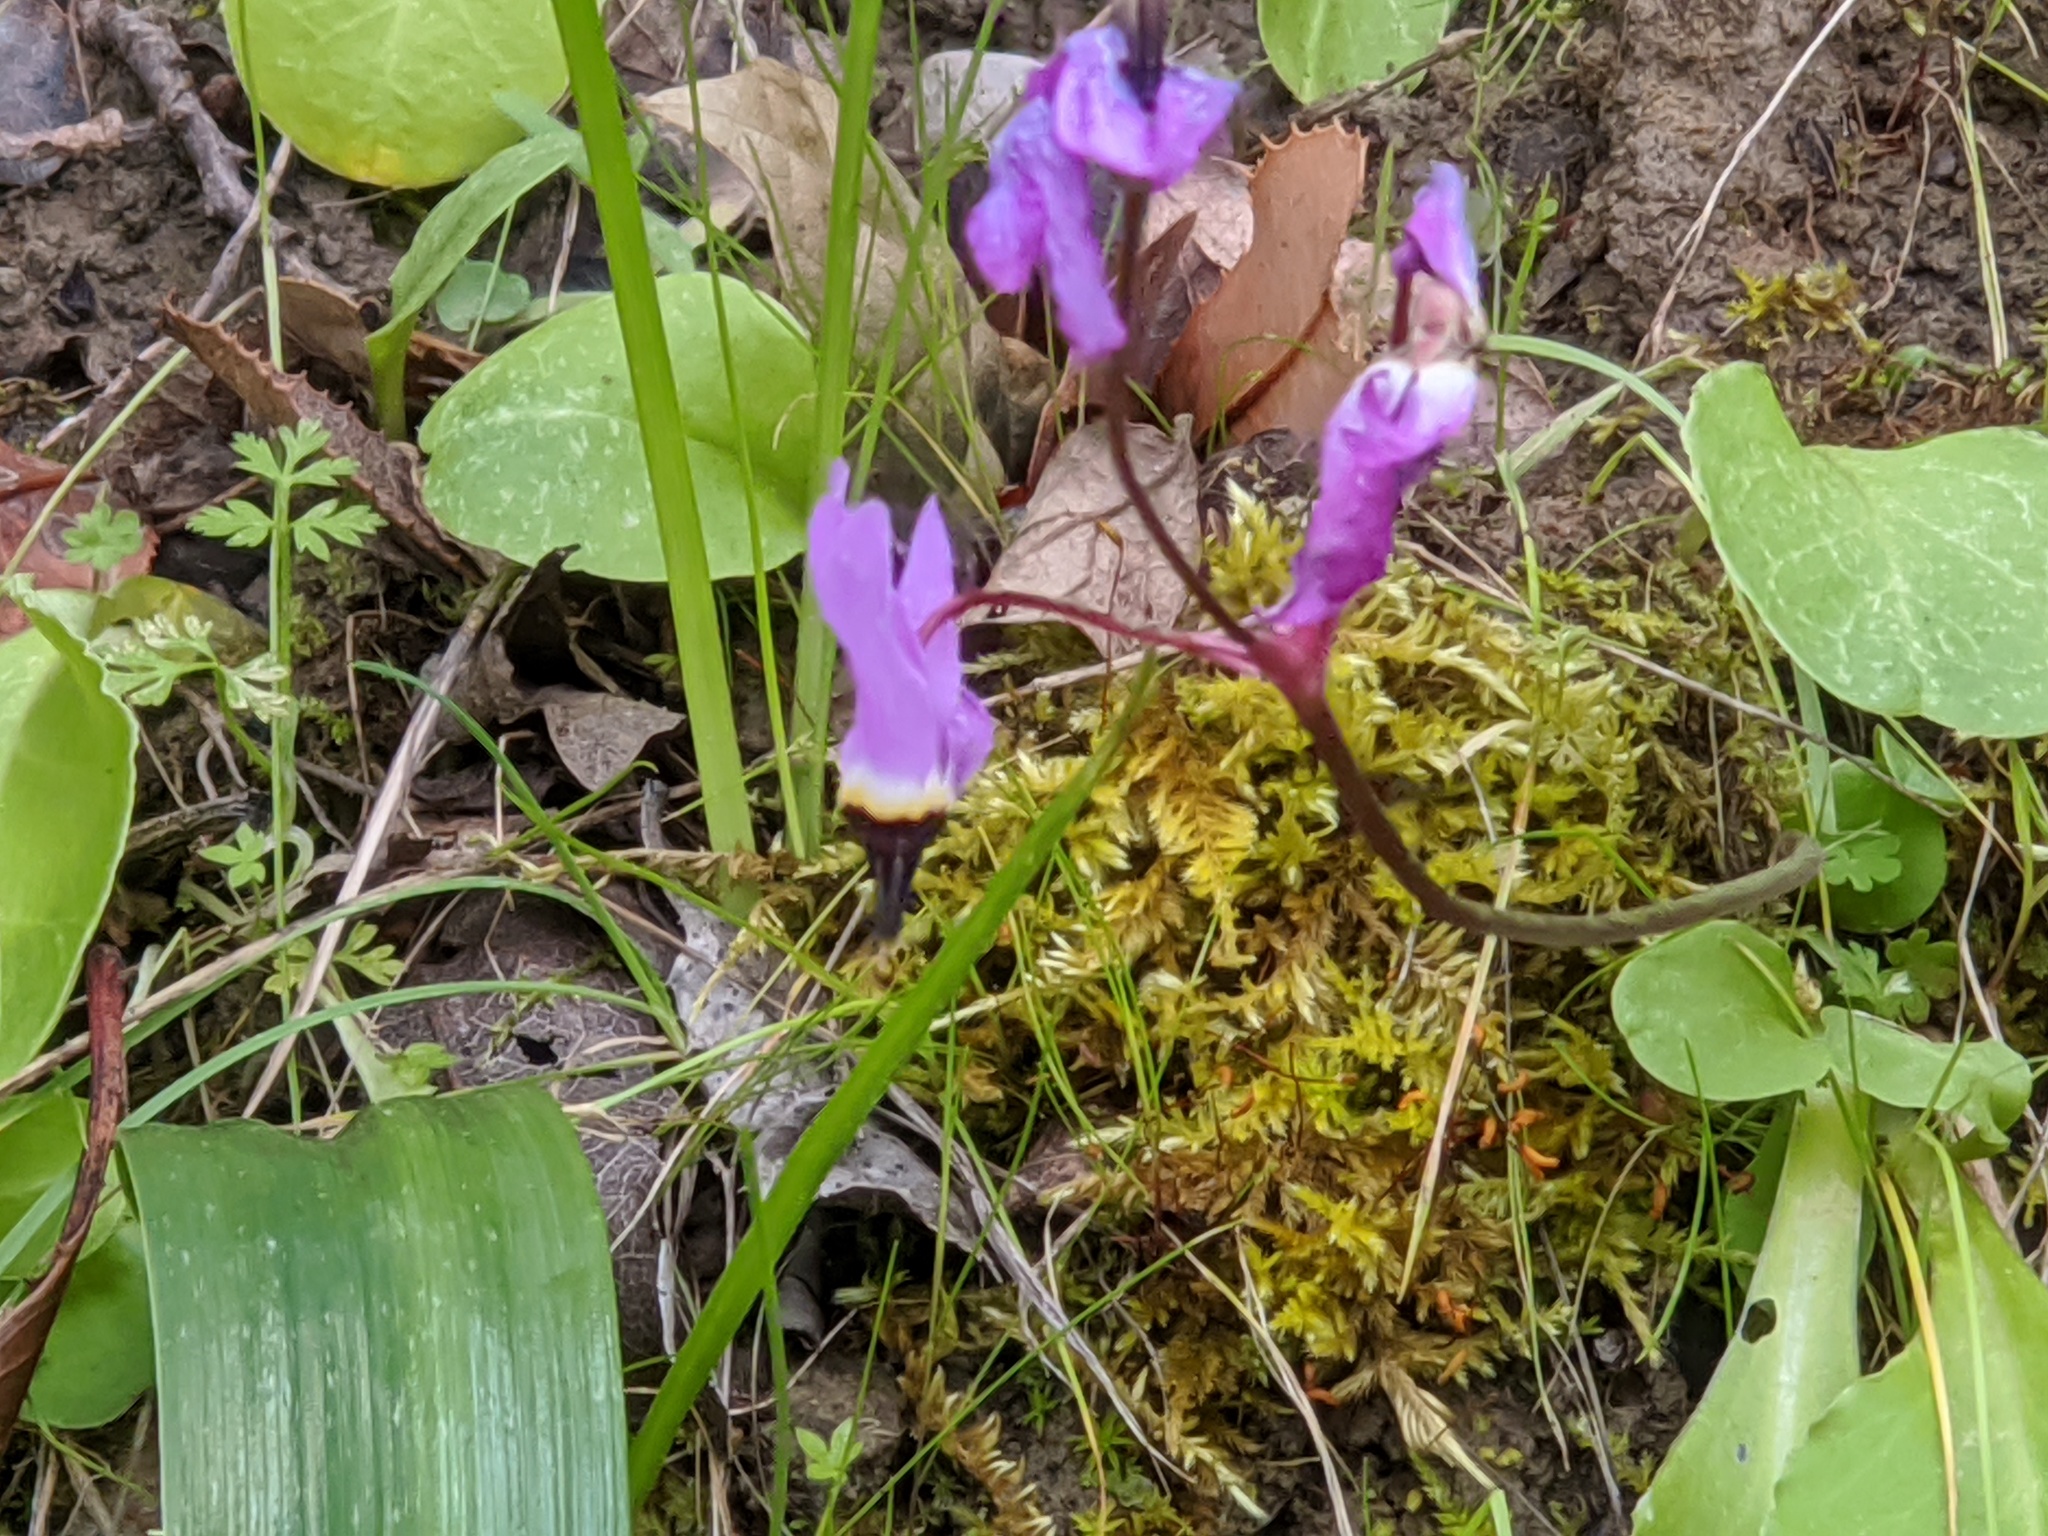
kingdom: Plantae
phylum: Tracheophyta
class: Magnoliopsida
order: Ericales
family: Primulaceae
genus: Dodecatheon
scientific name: Dodecatheon hendersonii
